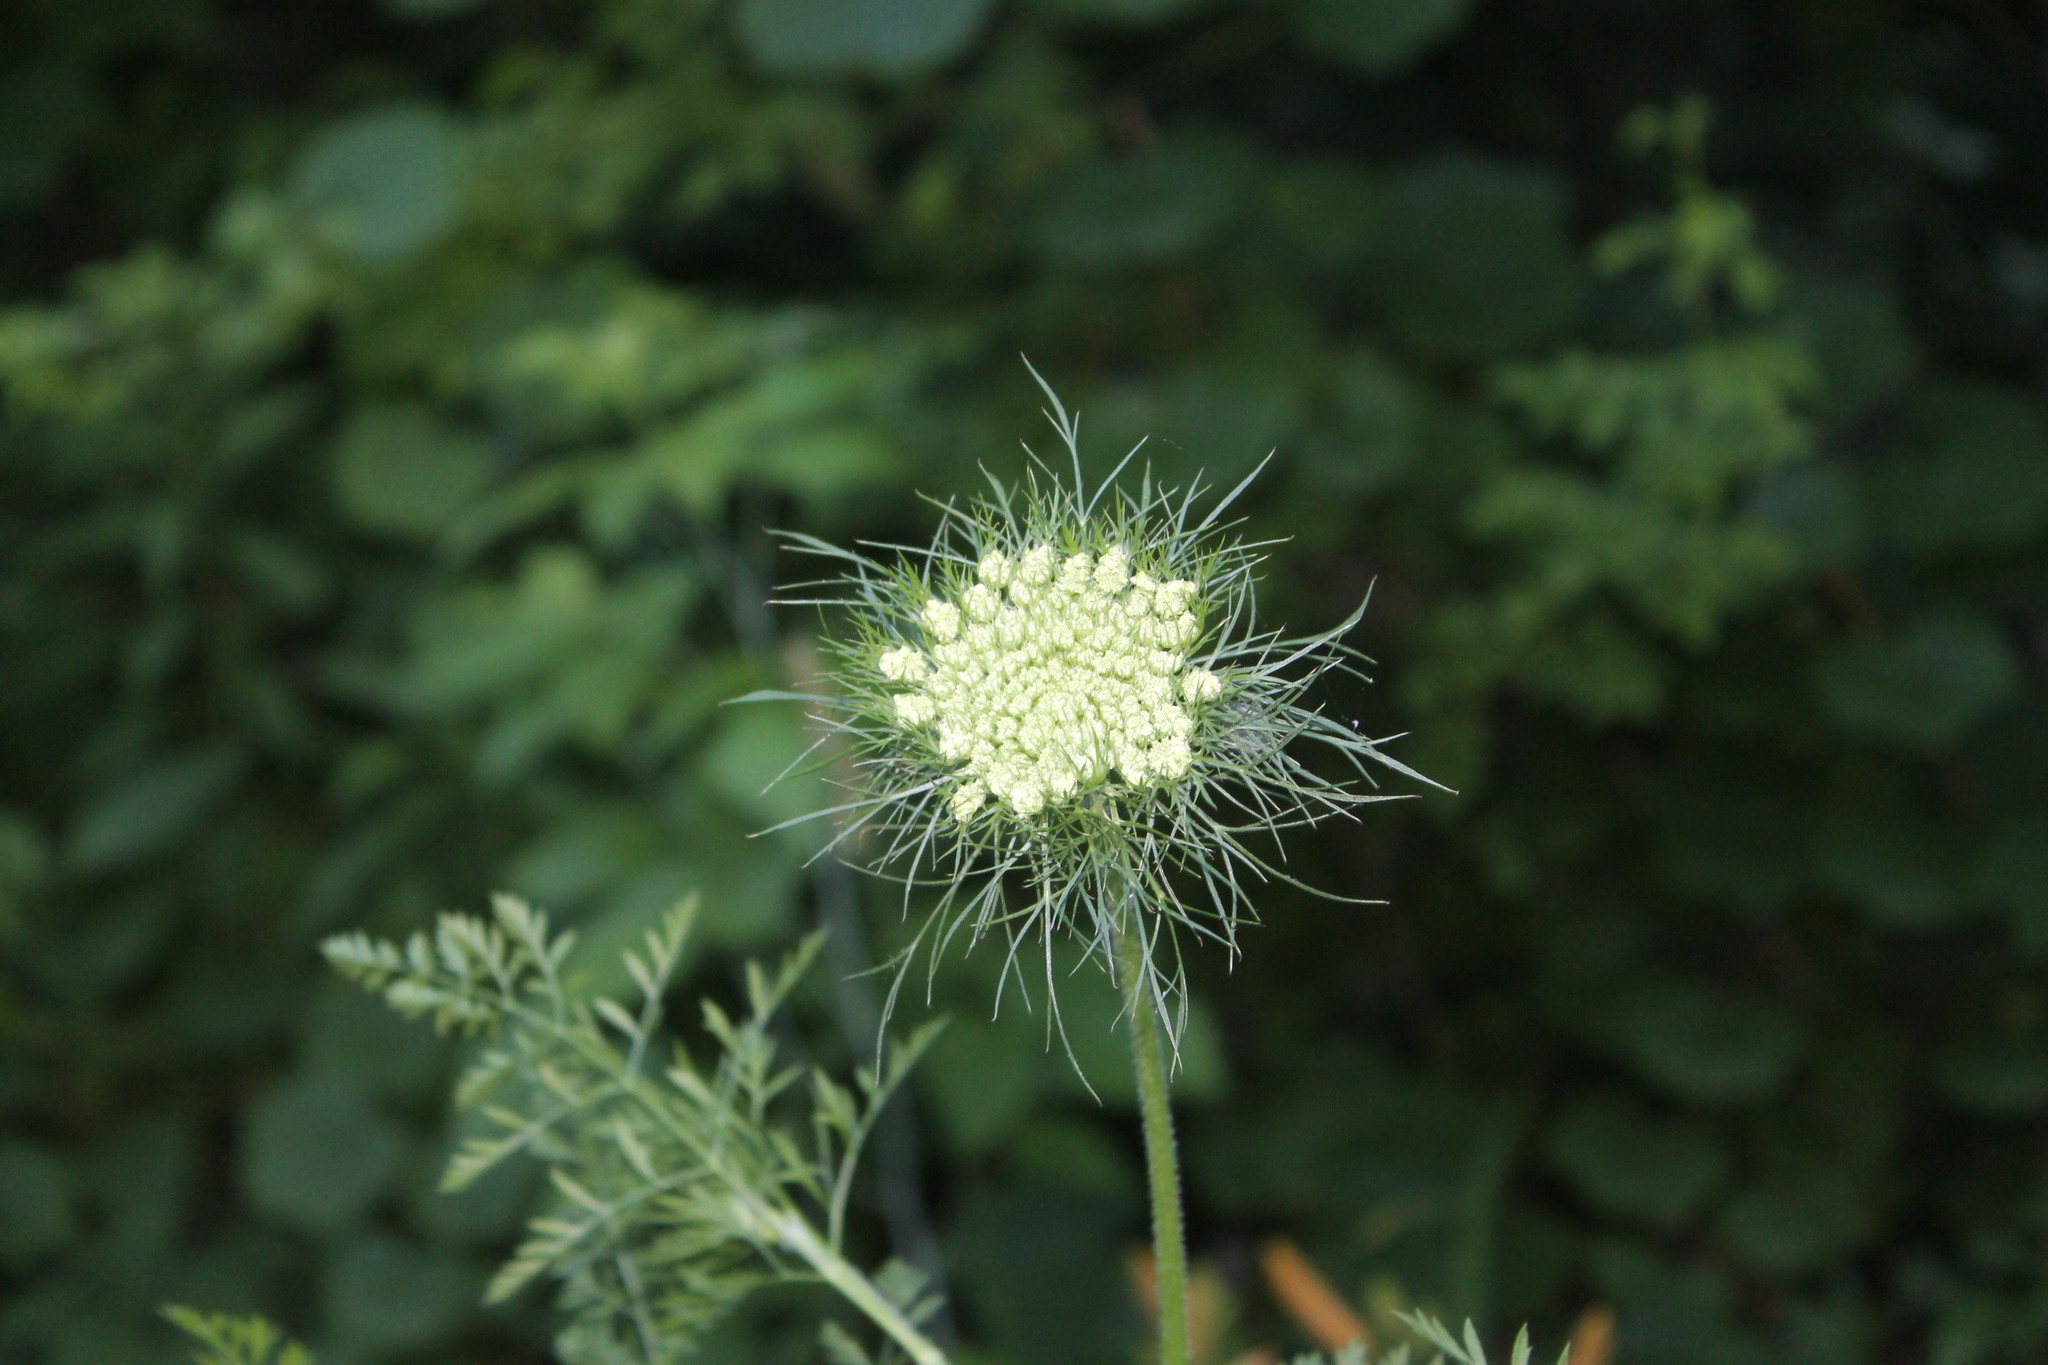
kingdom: Plantae
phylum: Tracheophyta
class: Magnoliopsida
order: Apiales
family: Apiaceae
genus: Daucus
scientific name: Daucus carota
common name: Wild carrot
